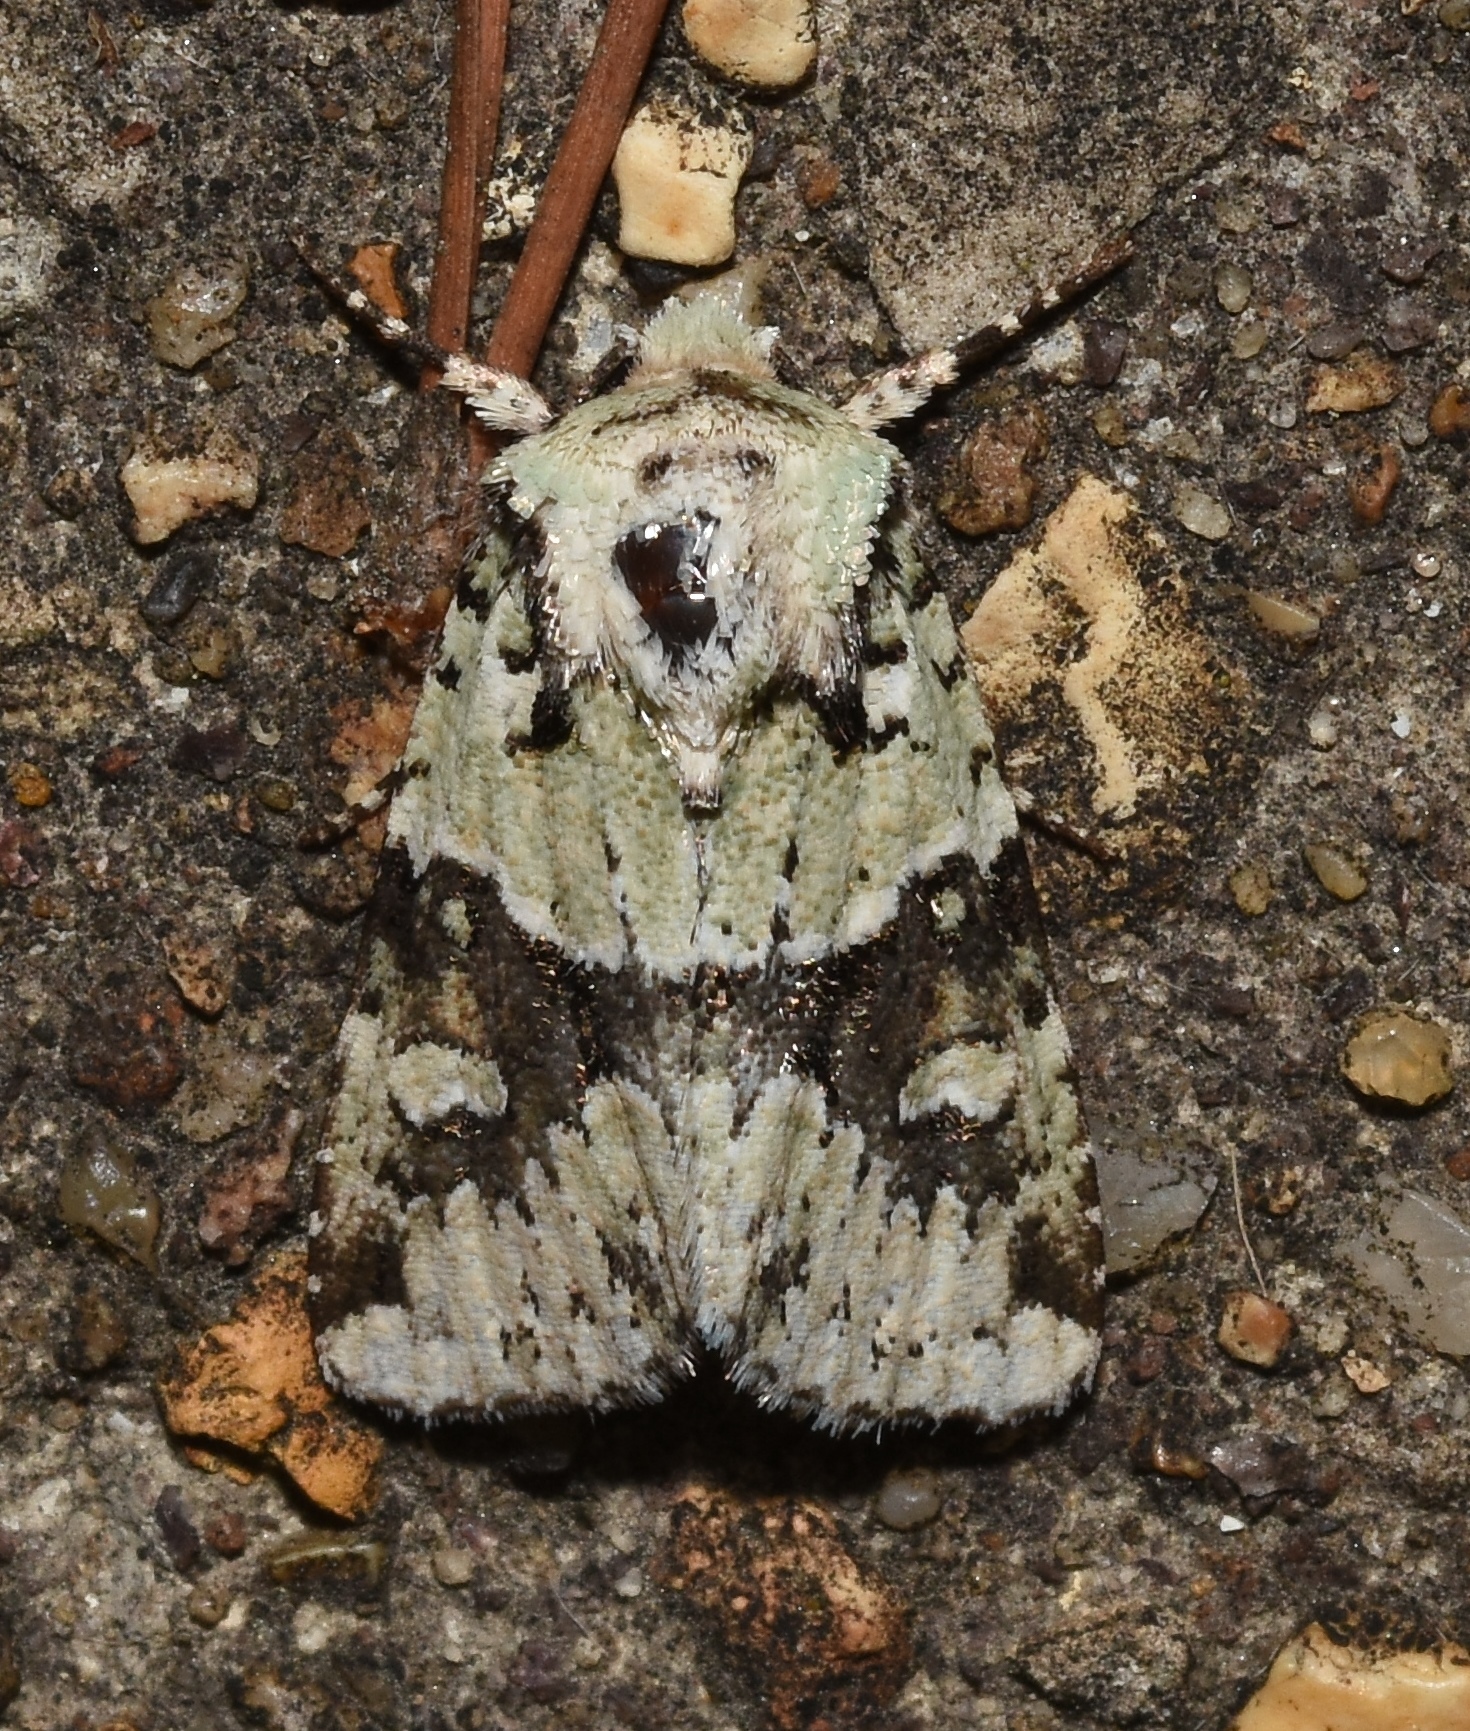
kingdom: Animalia
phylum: Arthropoda
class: Insecta
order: Lepidoptera
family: Noctuidae
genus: Lacinipolia
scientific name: Lacinipolia implicata
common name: Implicit arches
